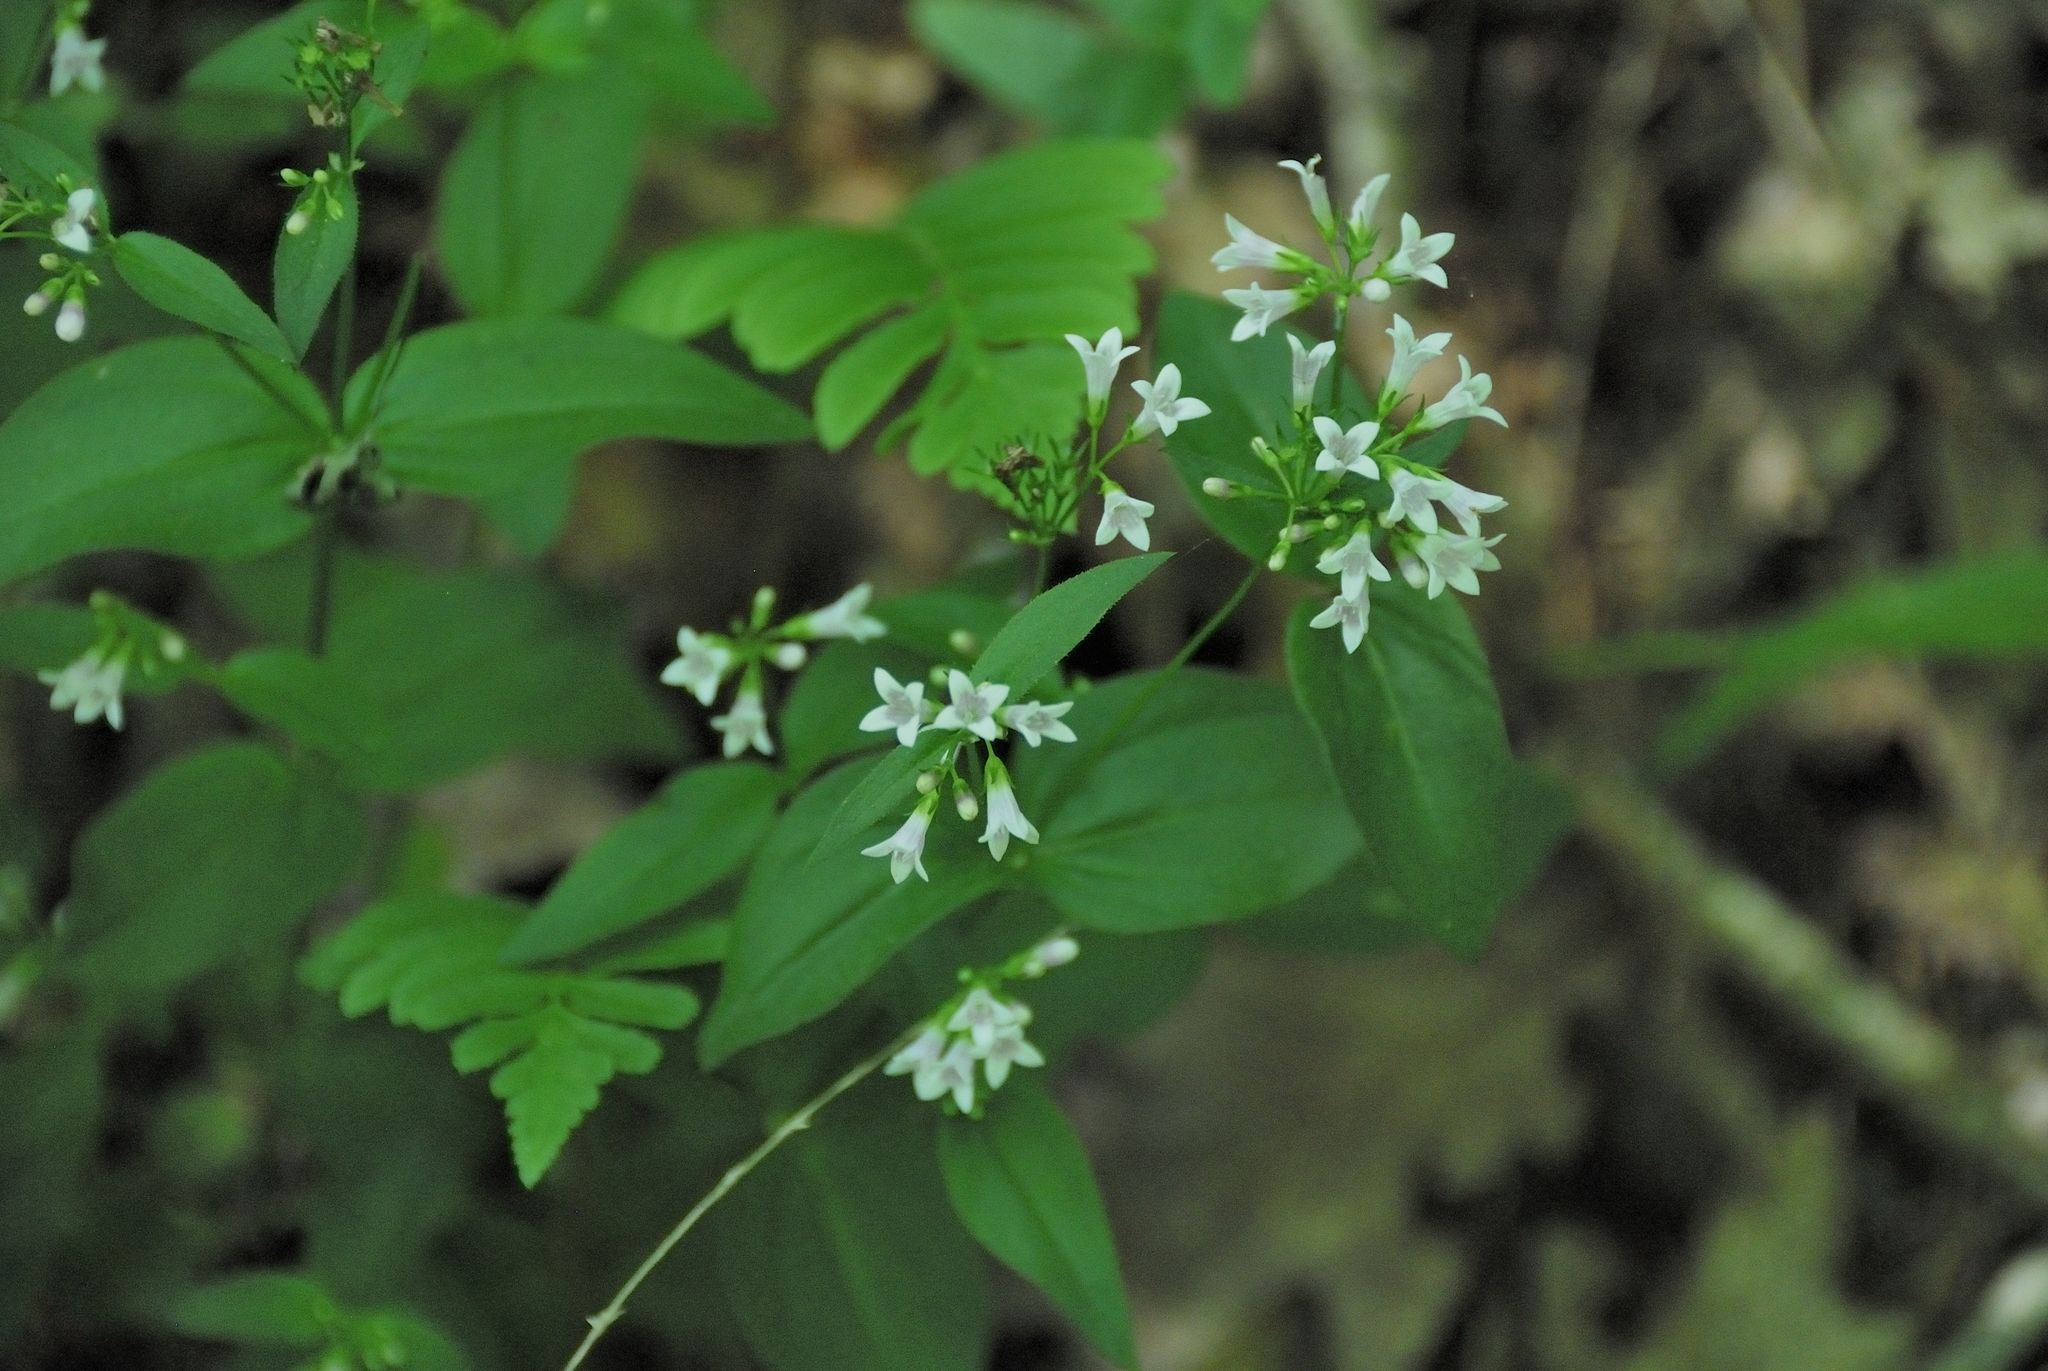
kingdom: Plantae
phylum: Tracheophyta
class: Magnoliopsida
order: Gentianales
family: Rubiaceae
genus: Houstonia
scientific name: Houstonia purpurea
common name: Summer bluet
